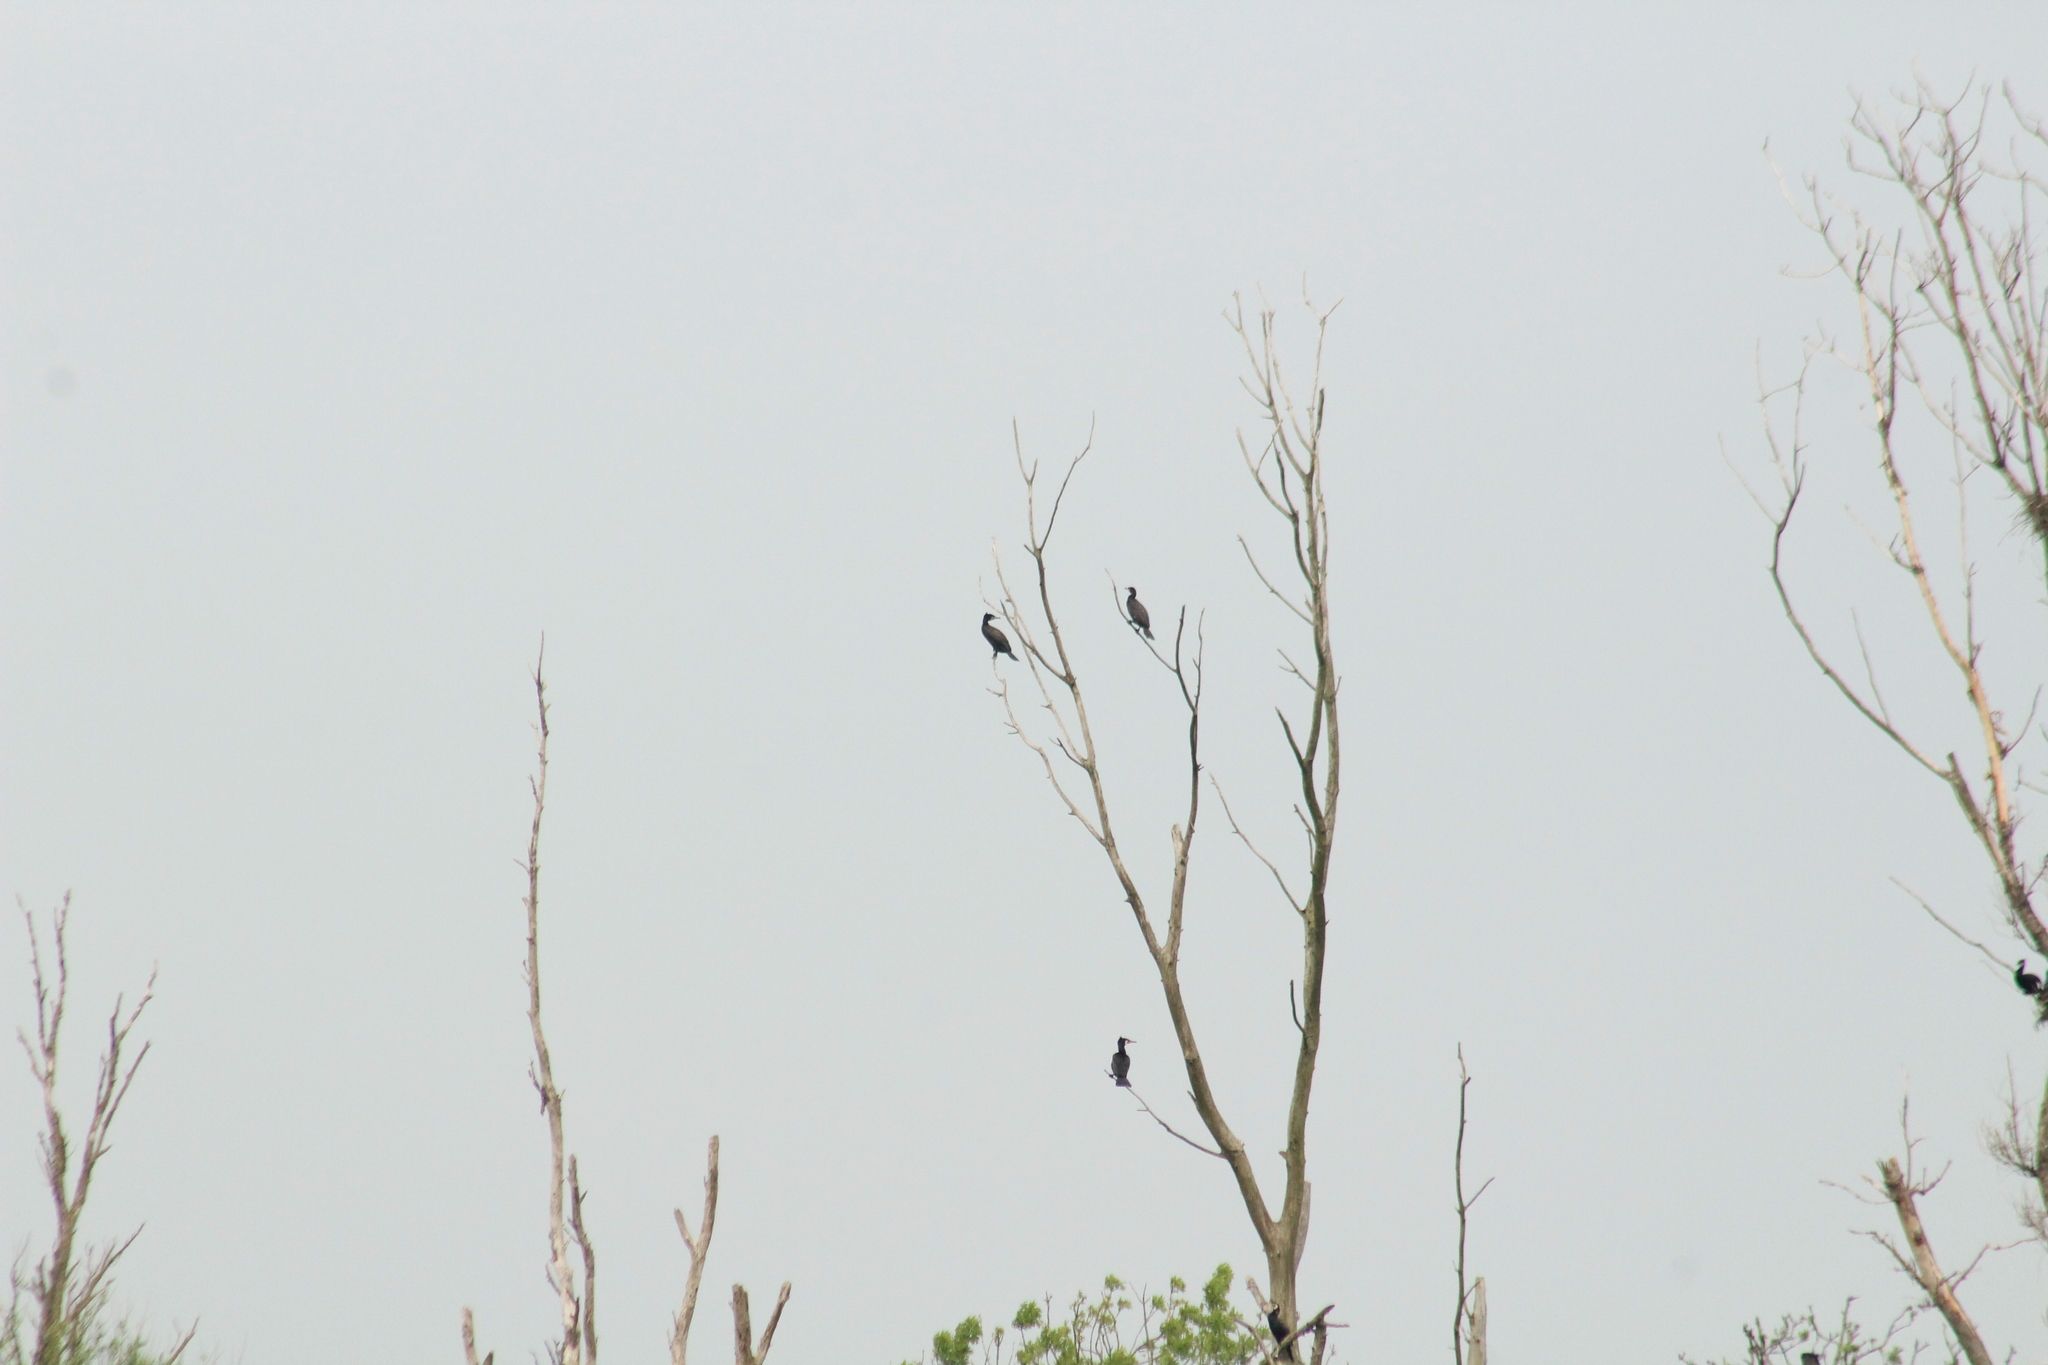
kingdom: Animalia
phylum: Chordata
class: Aves
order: Suliformes
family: Phalacrocoracidae
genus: Phalacrocorax
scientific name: Phalacrocorax carbo
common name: Great cormorant
